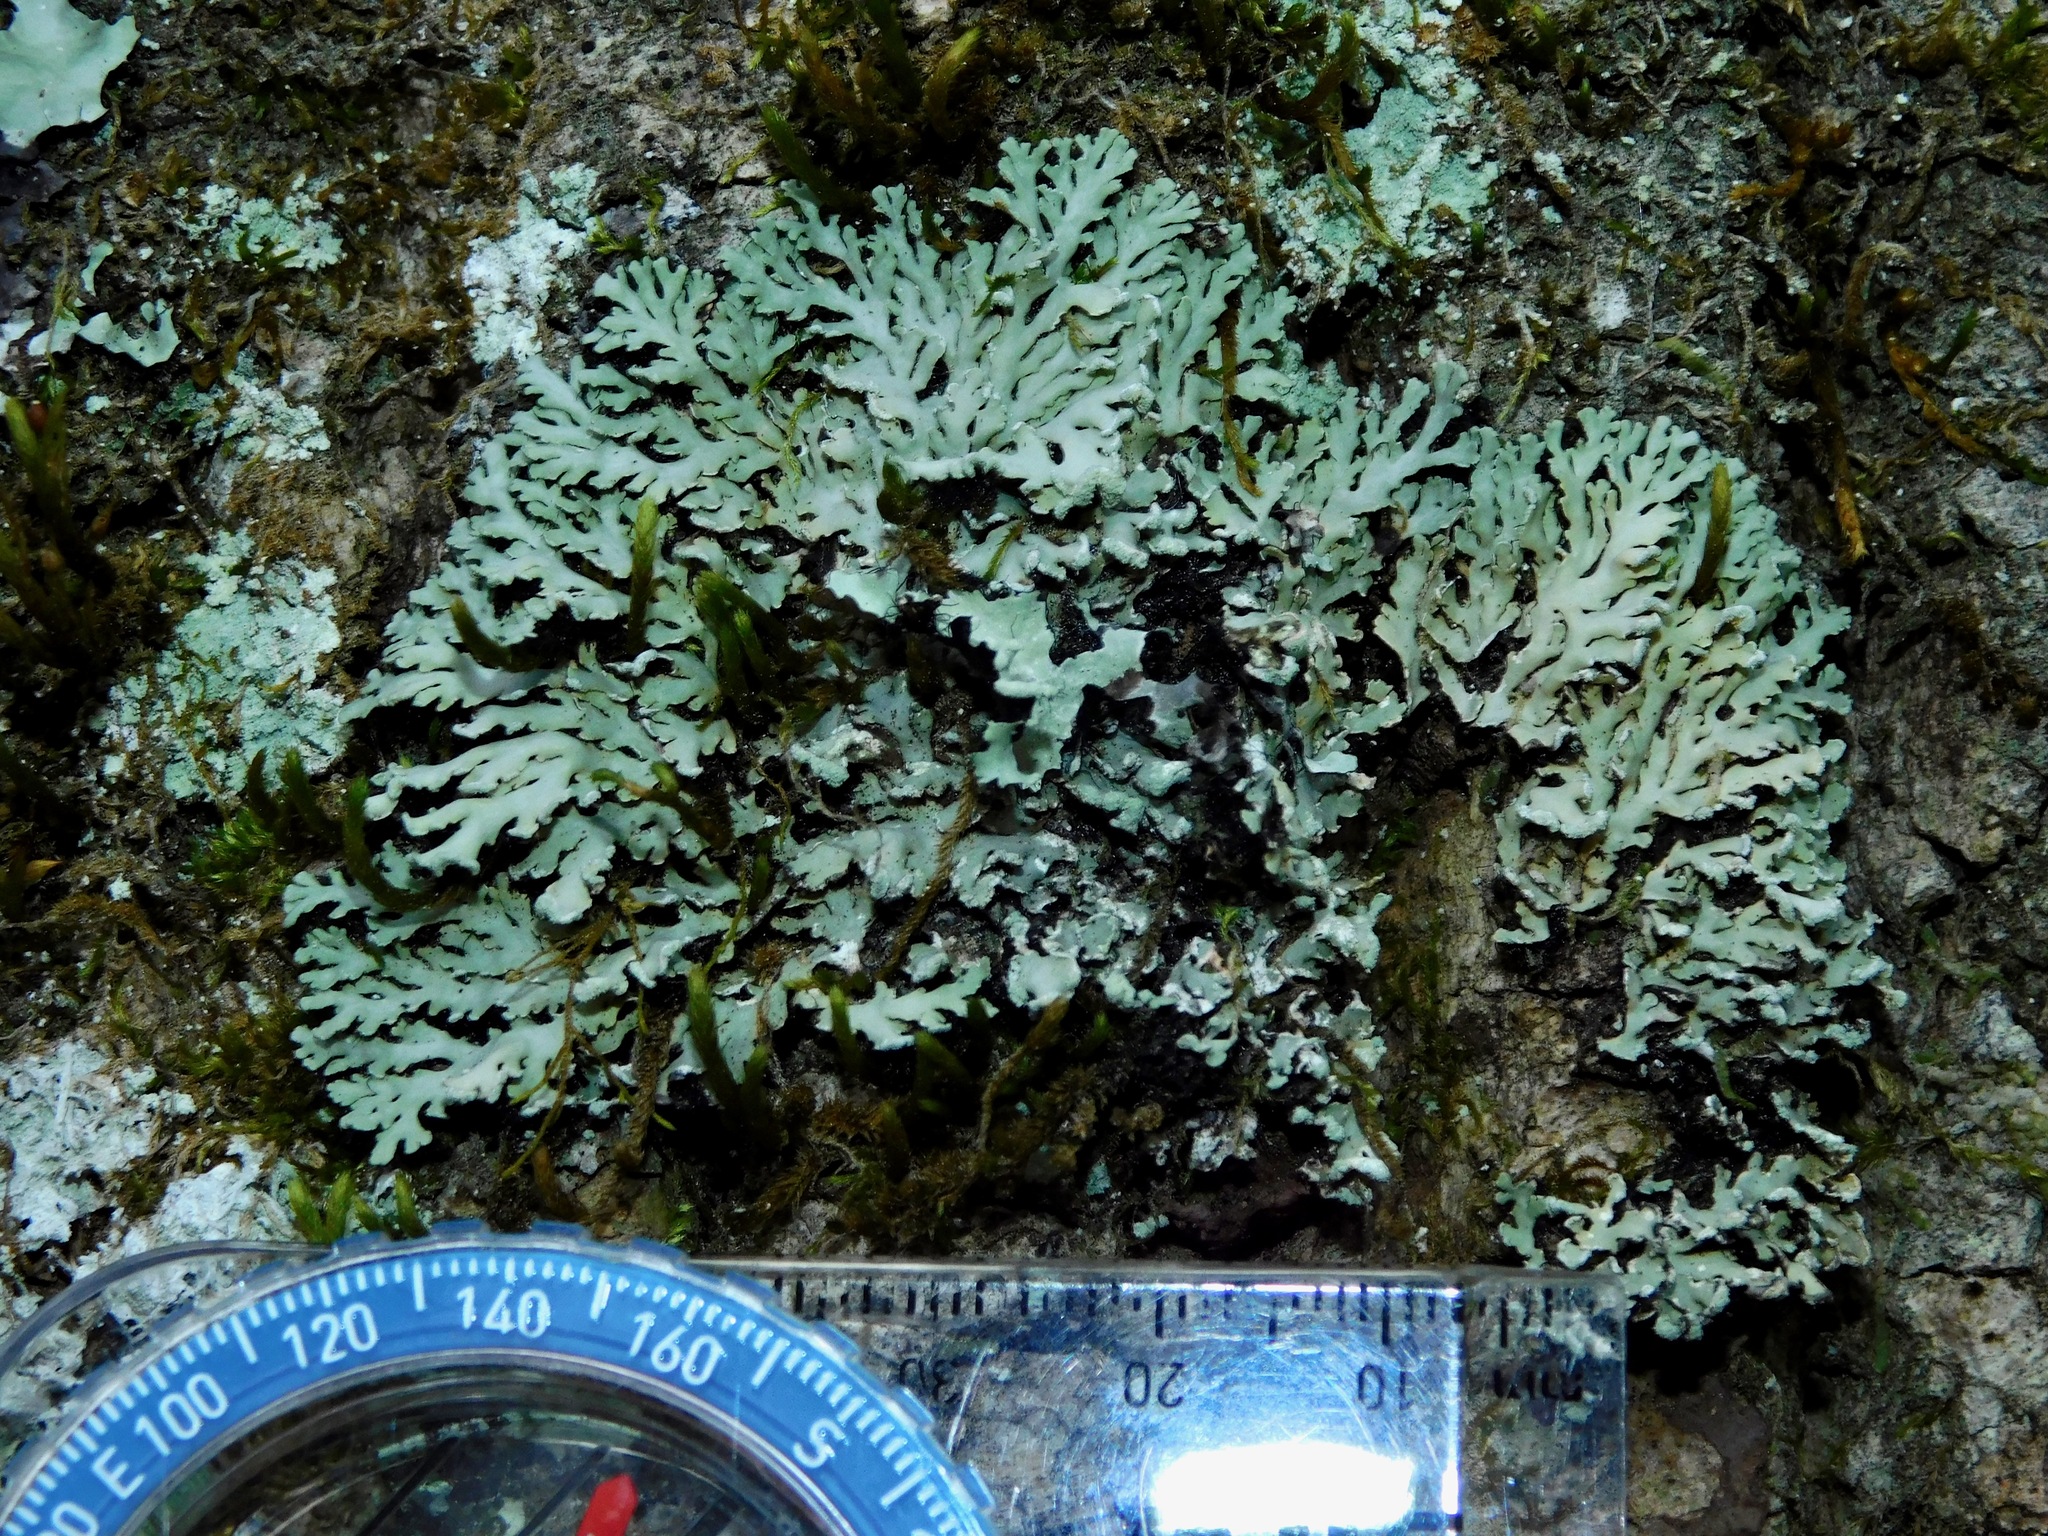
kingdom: Fungi
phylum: Ascomycota
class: Lecanoromycetes
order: Caliciales
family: Physciaceae
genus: Polyblastidium
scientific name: Polyblastidium neglectum
